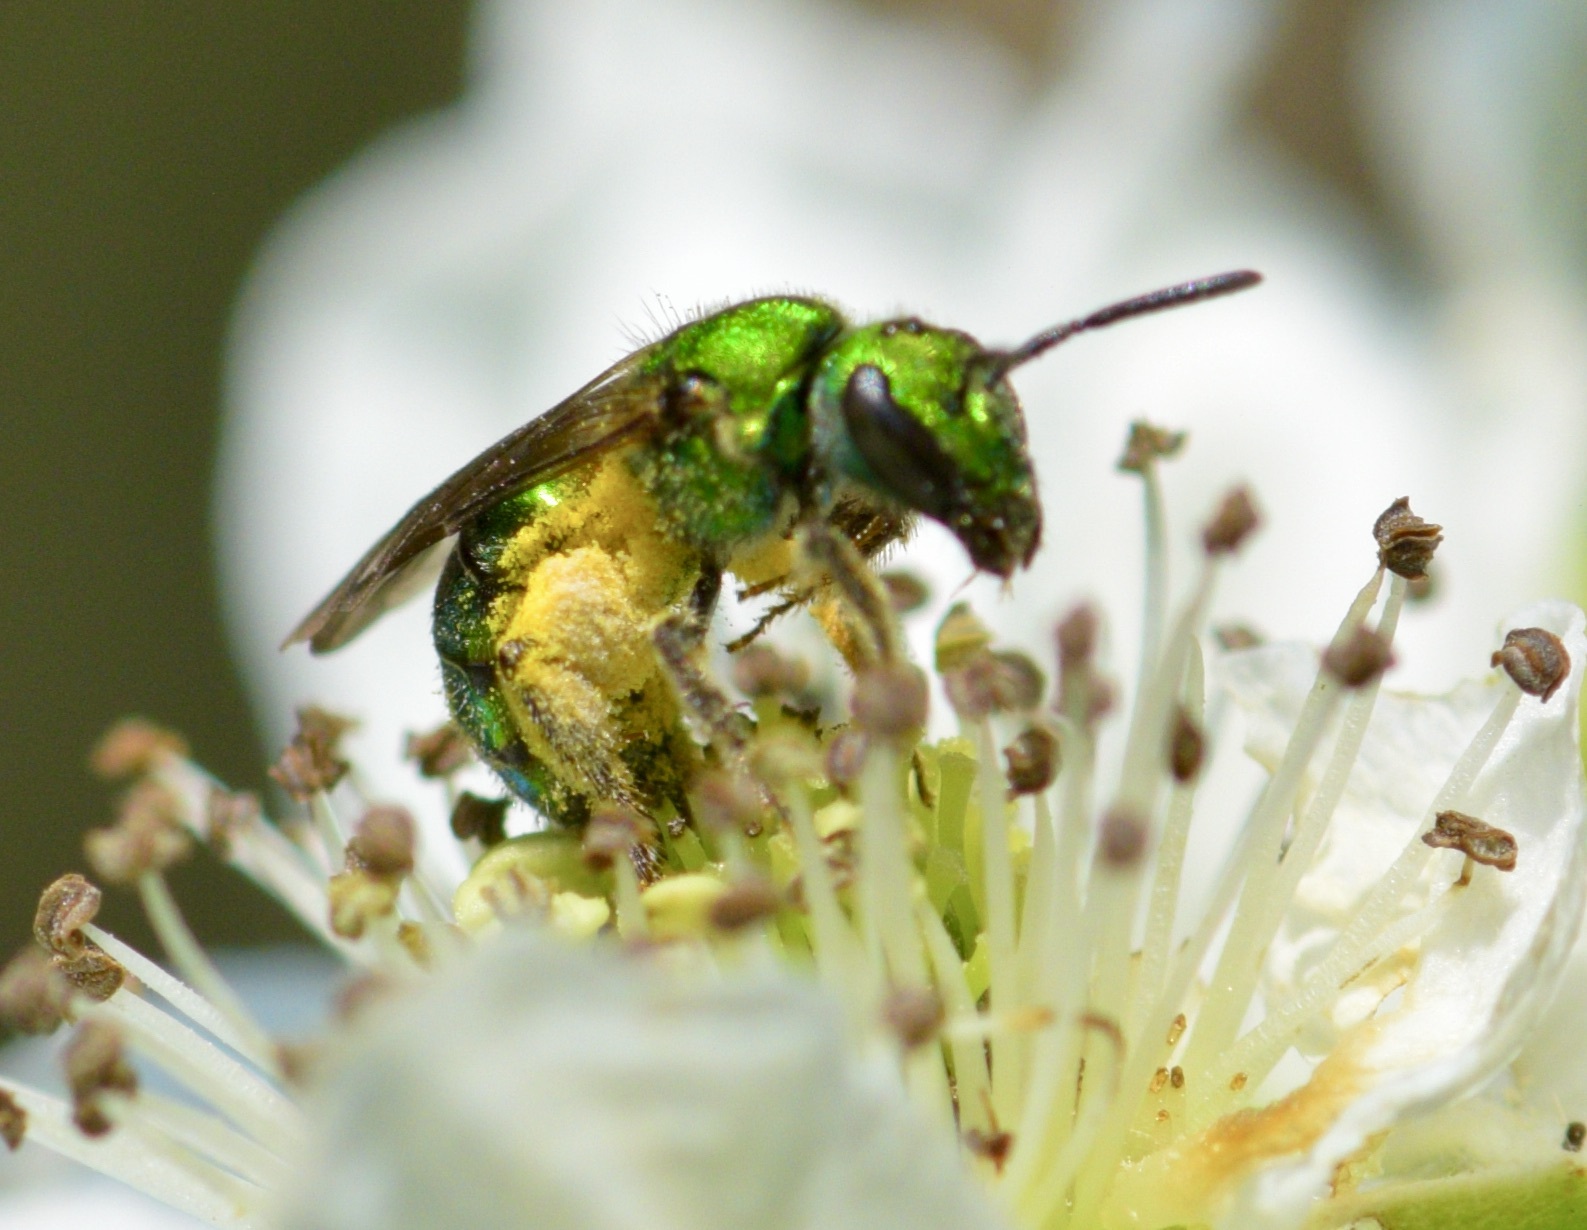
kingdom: Animalia
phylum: Arthropoda
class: Insecta
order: Hymenoptera
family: Halictidae
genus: Augochlora
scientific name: Augochlora pura
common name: Pure green sweat bee
